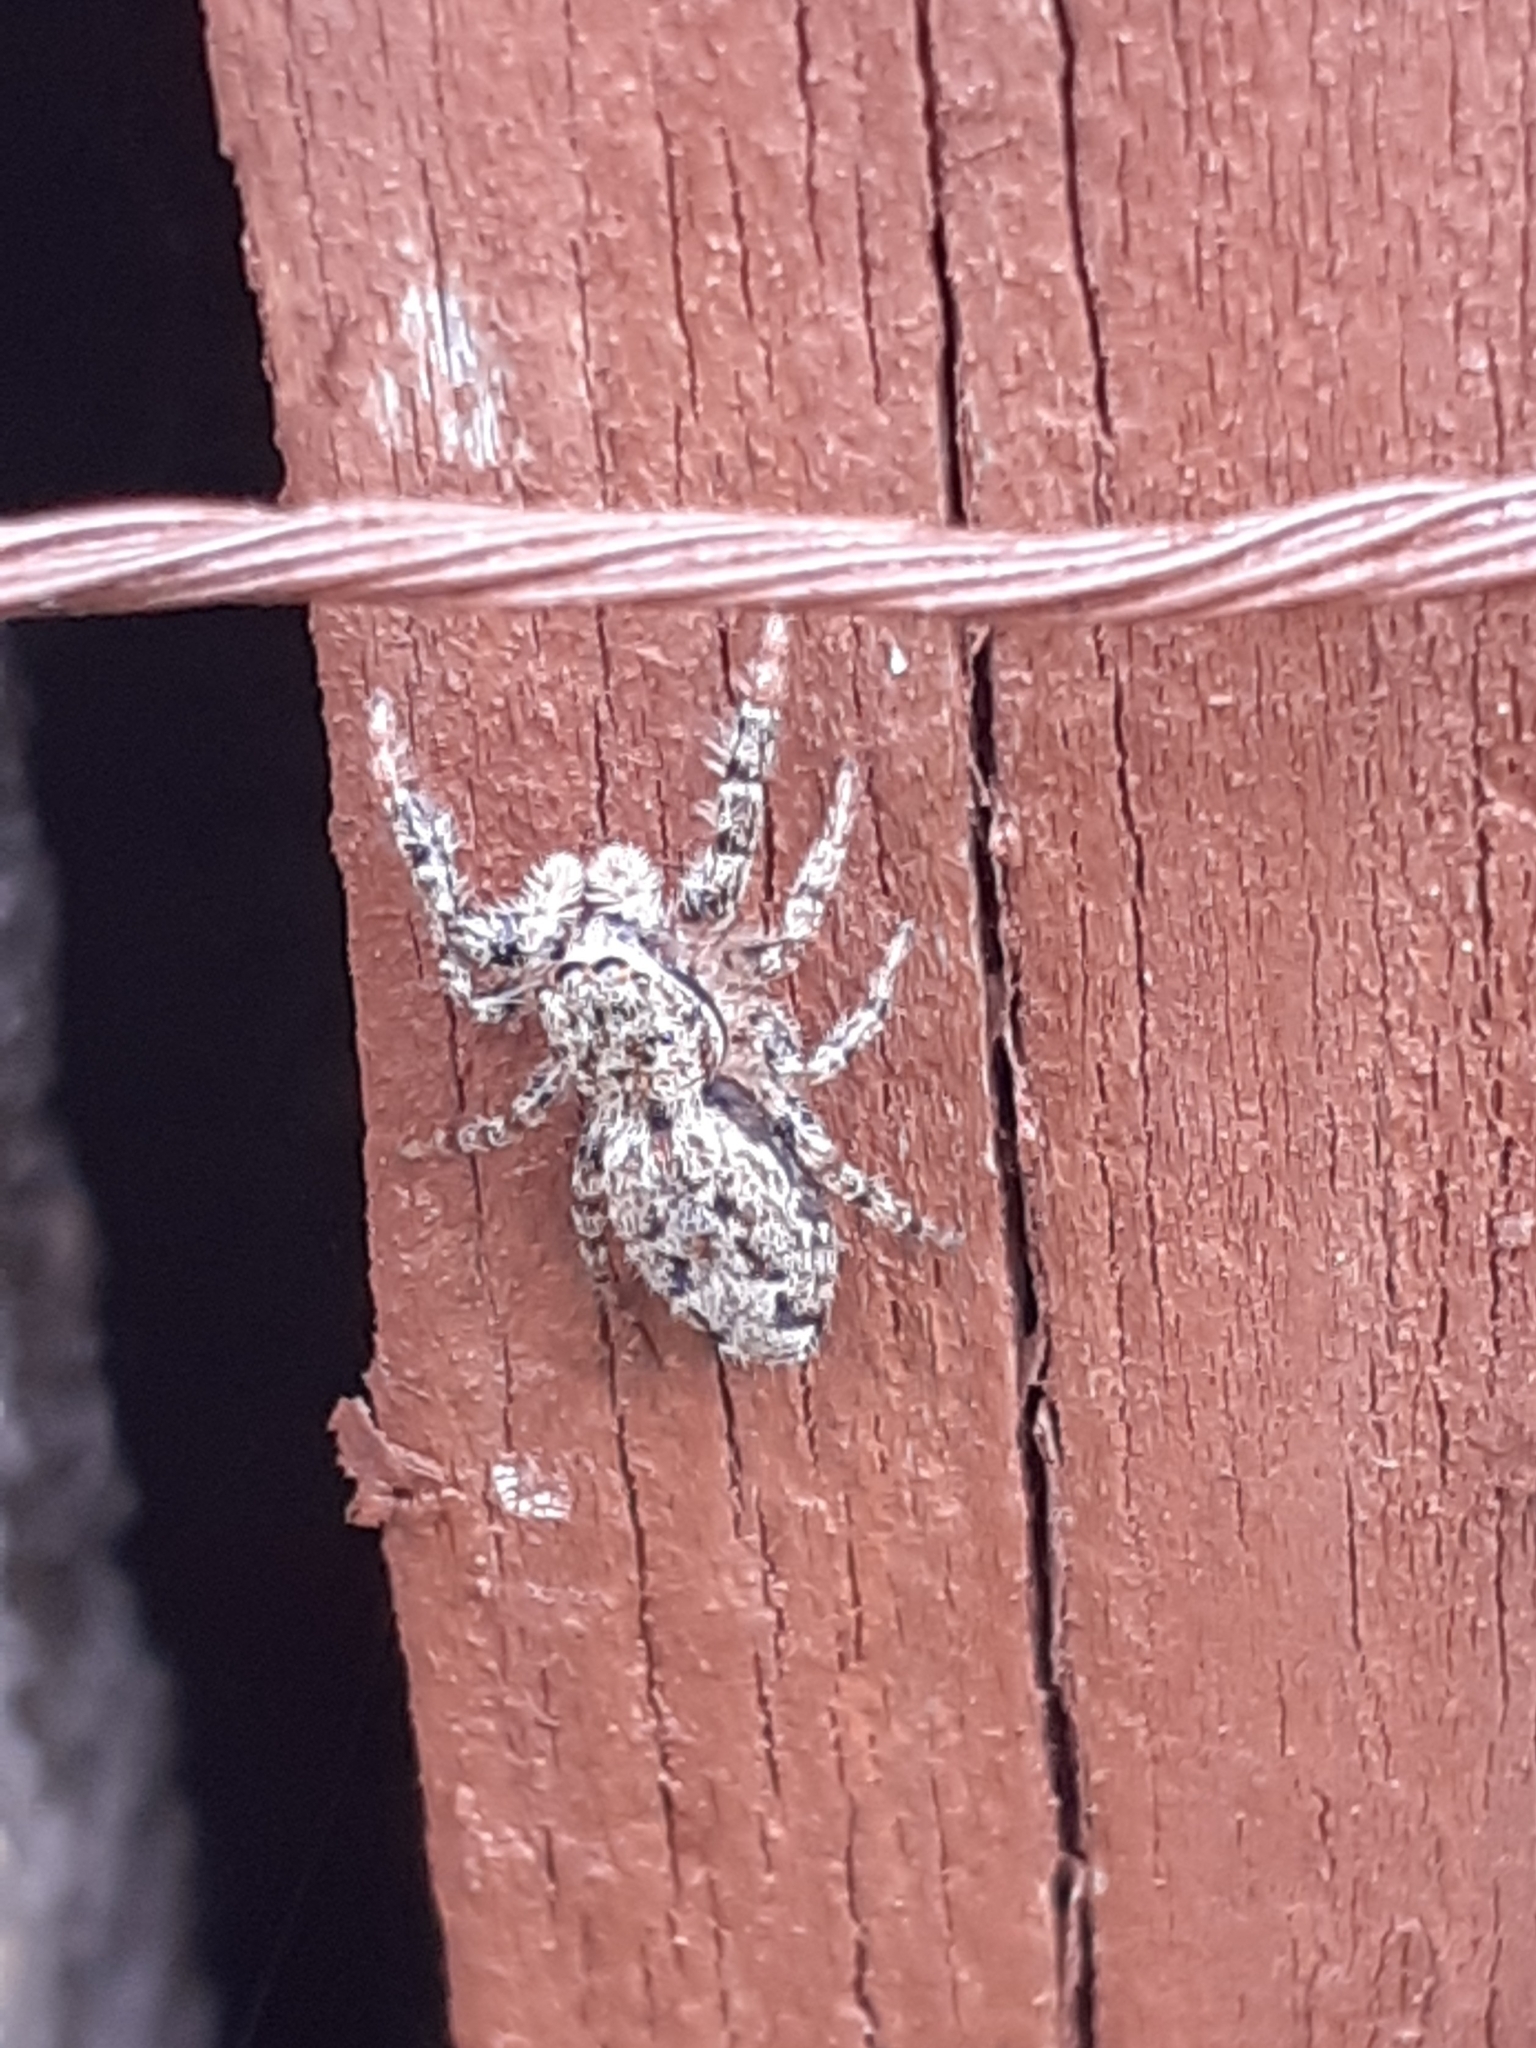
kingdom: Animalia
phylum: Arthropoda
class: Arachnida
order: Araneae
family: Salticidae
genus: Marpissa
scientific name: Marpissa muscosa
